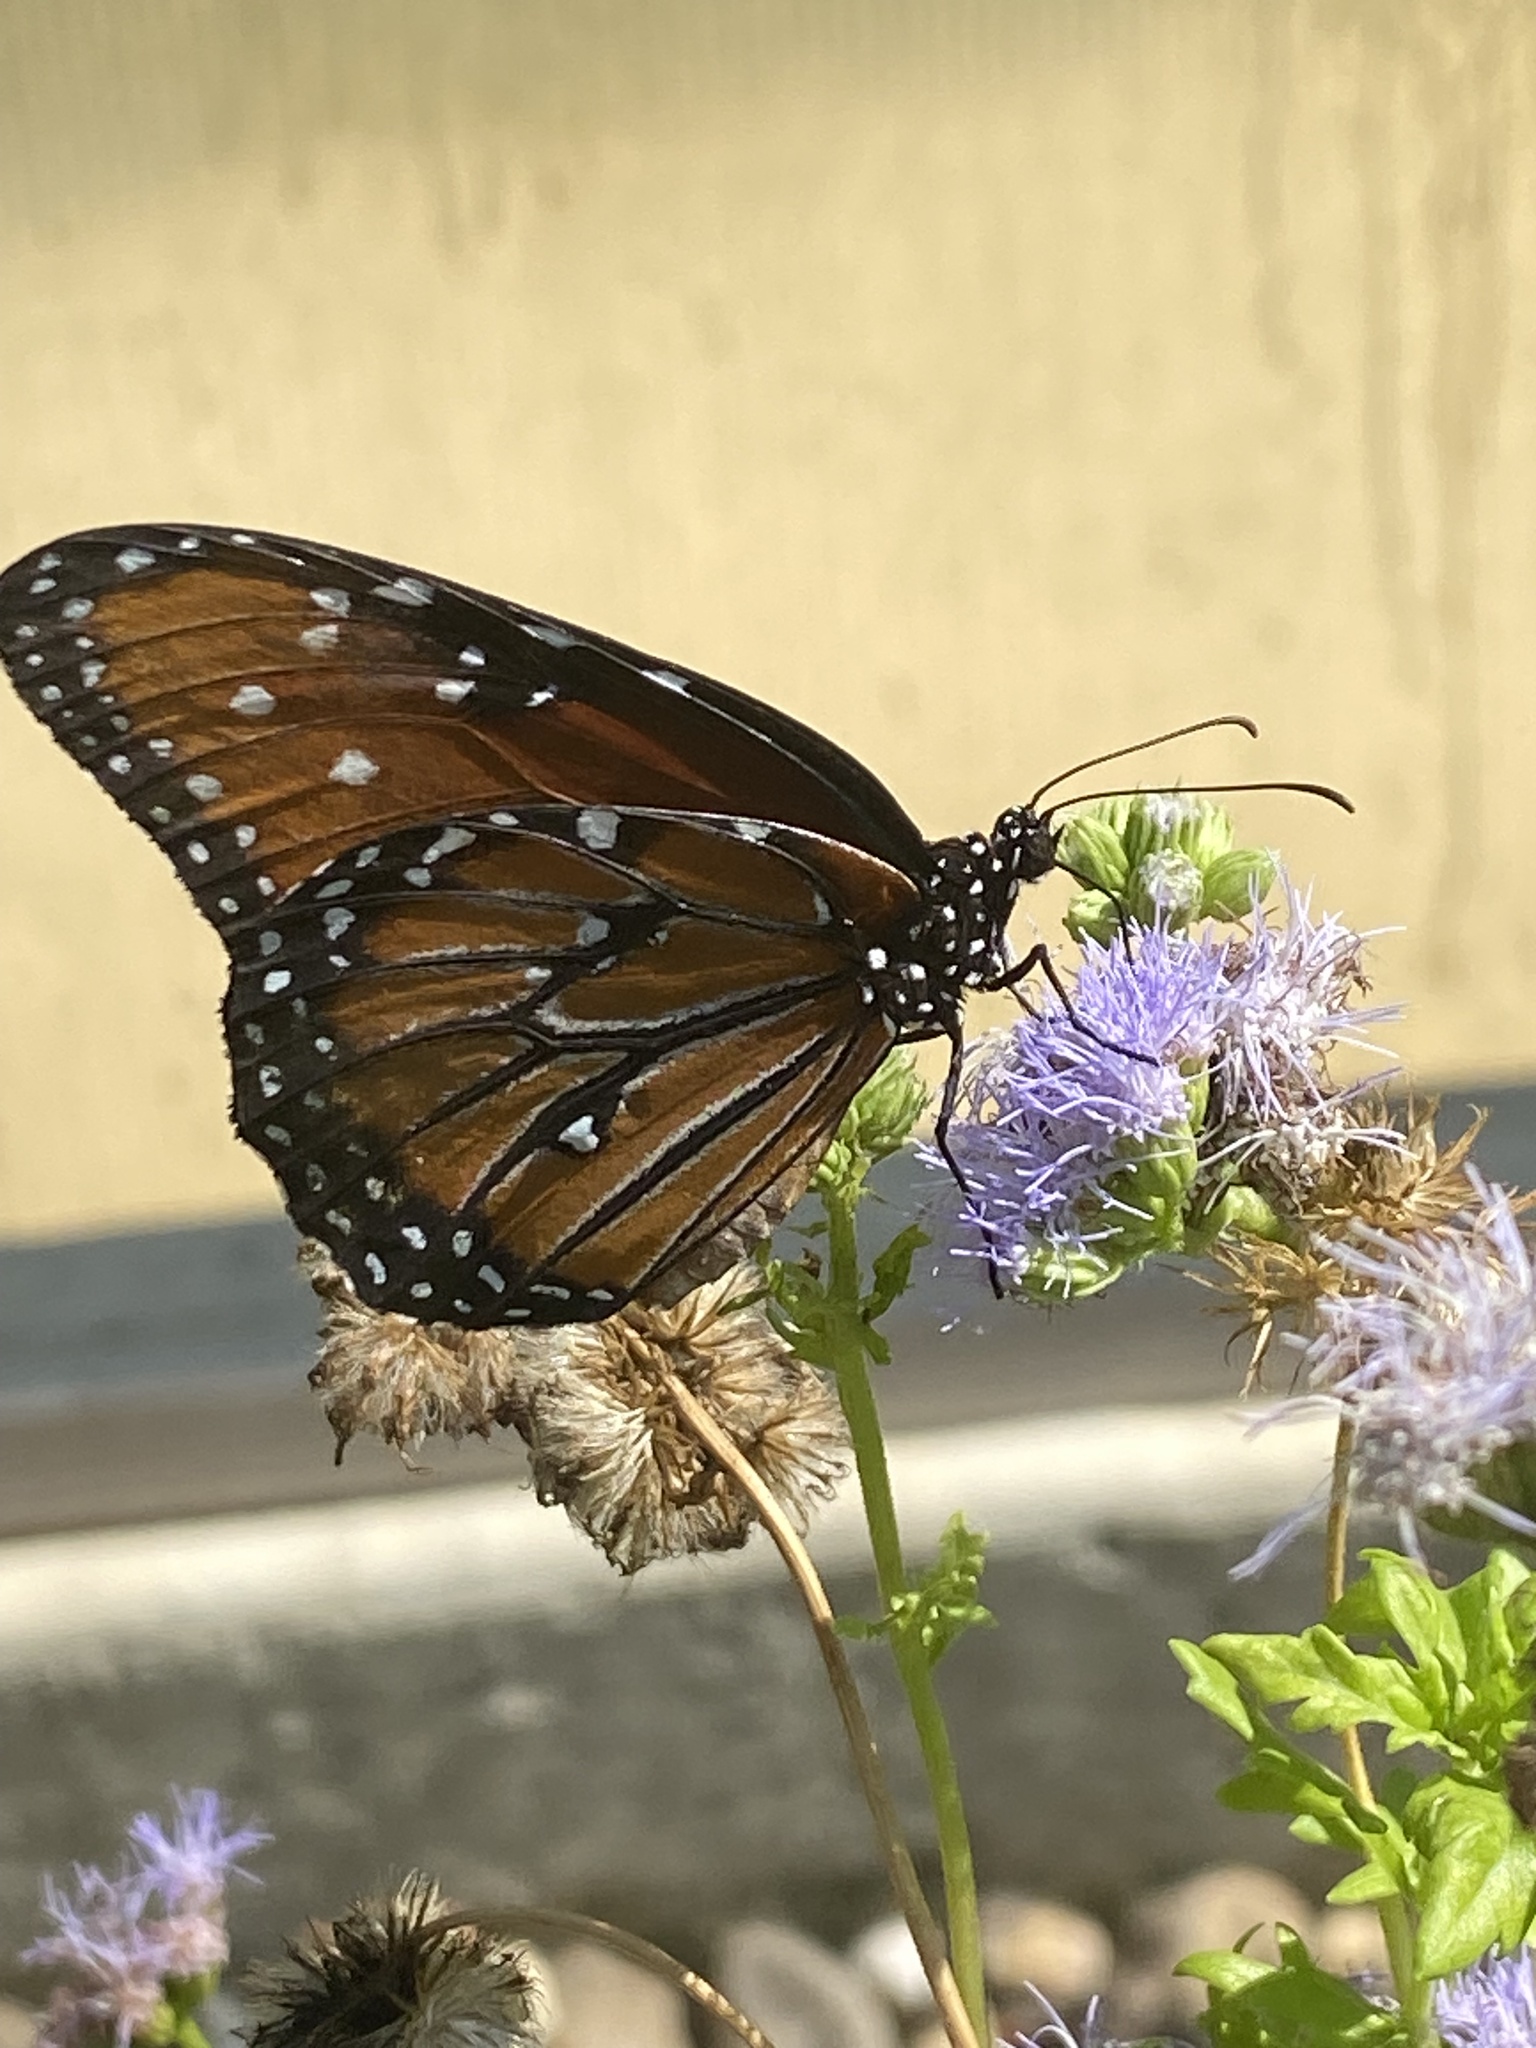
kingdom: Animalia
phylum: Arthropoda
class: Insecta
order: Lepidoptera
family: Nymphalidae
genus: Danaus
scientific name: Danaus gilippus
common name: Queen
